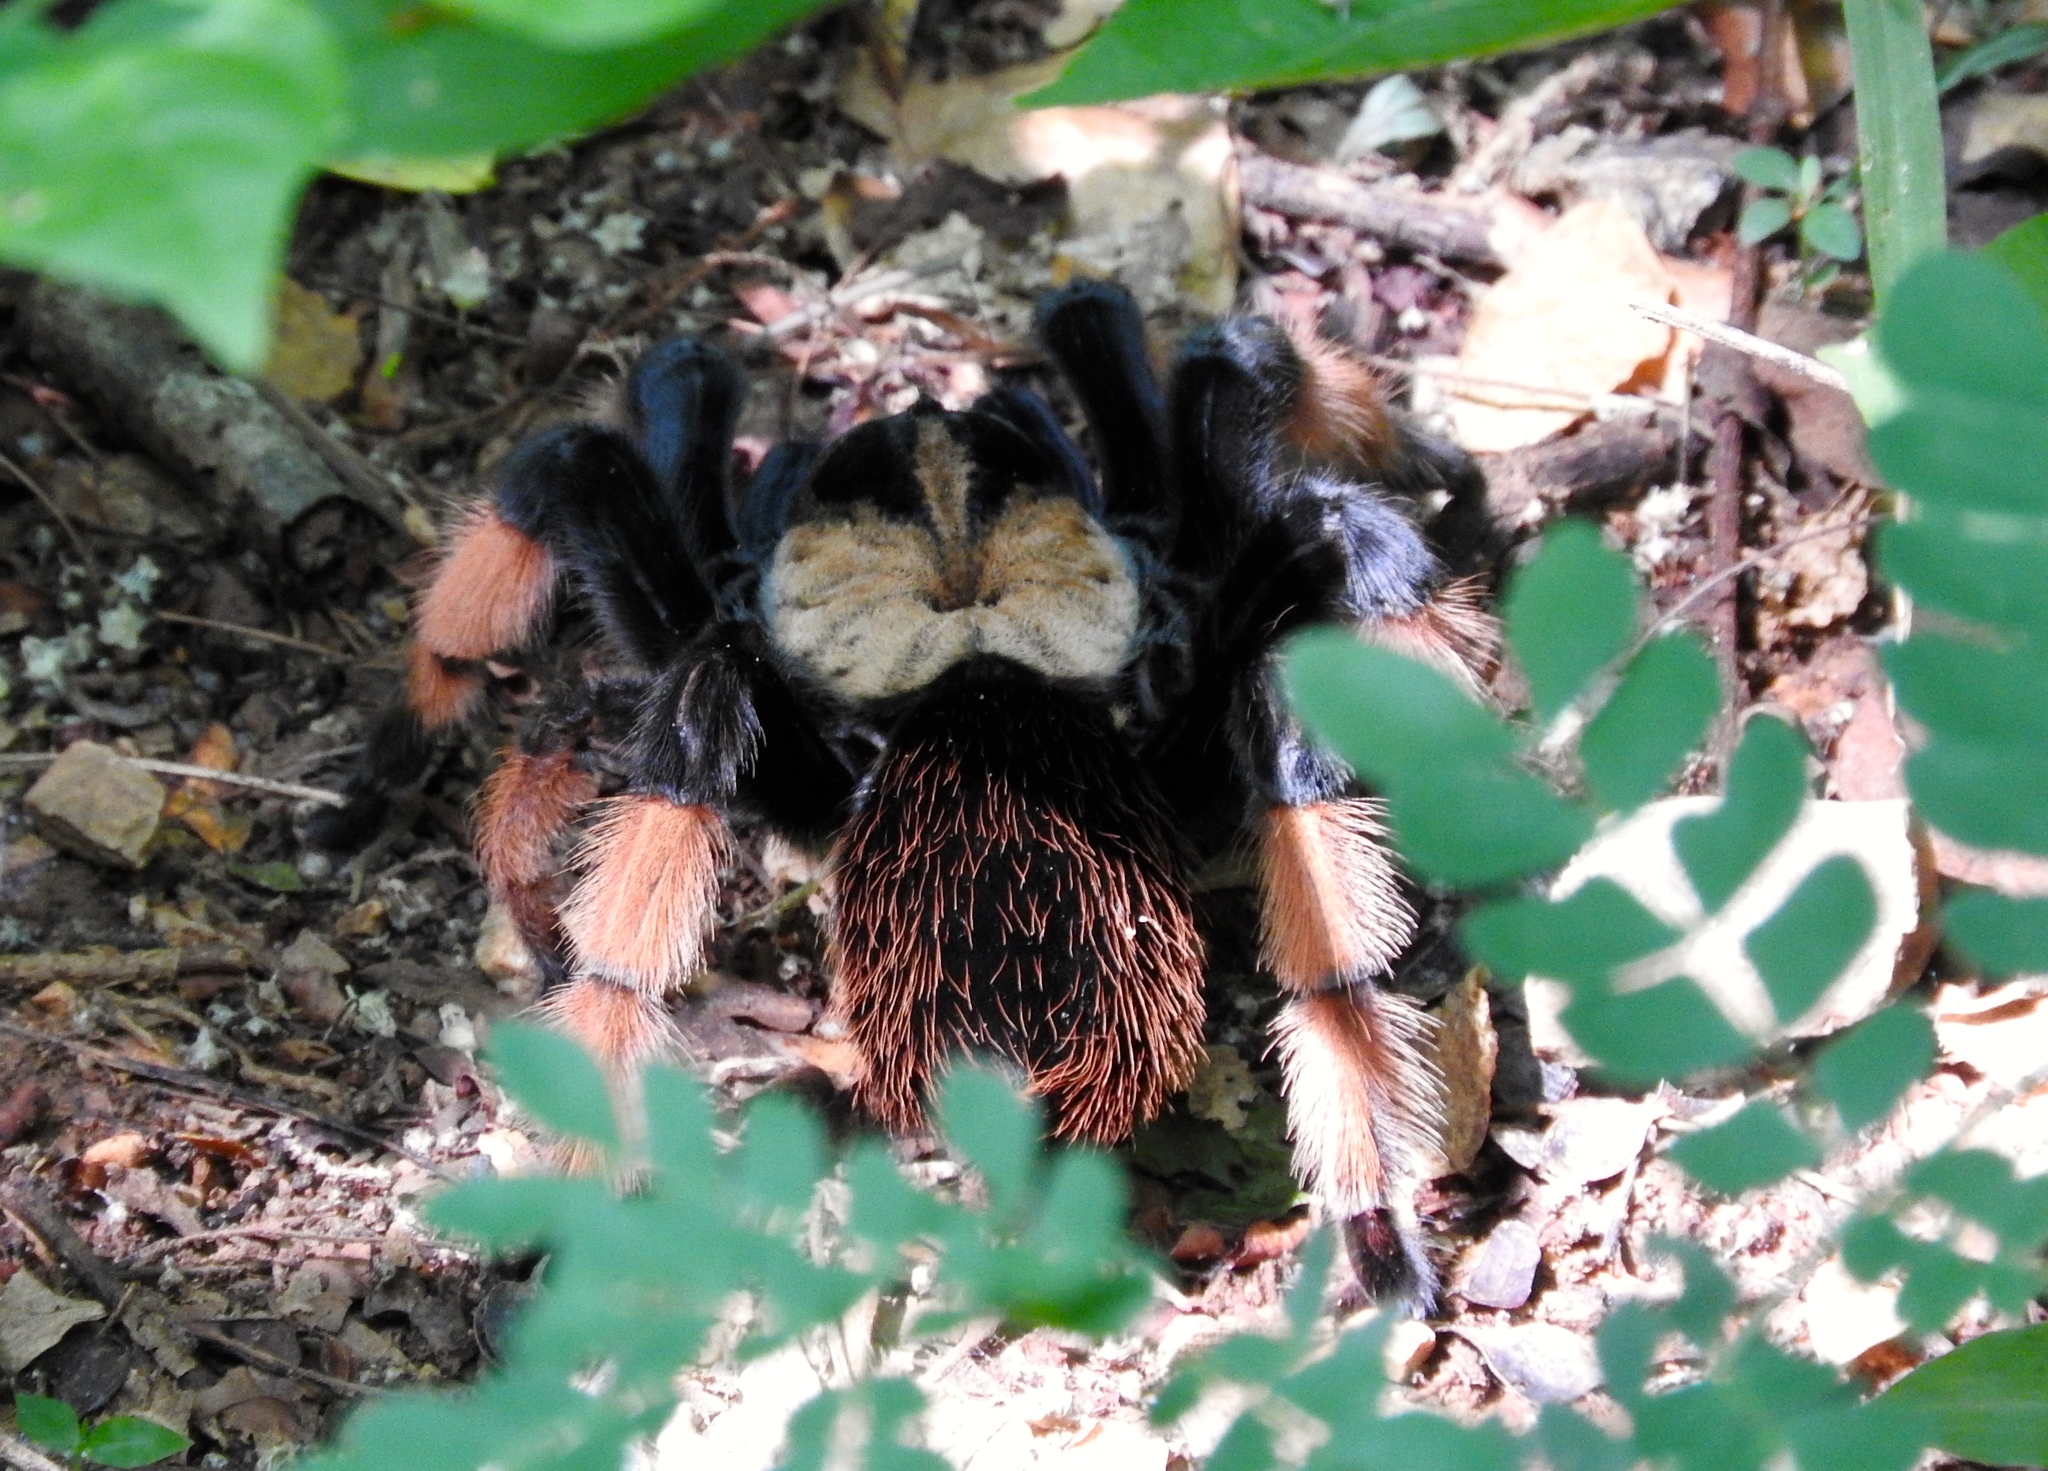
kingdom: Animalia
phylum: Arthropoda
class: Arachnida
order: Araneae
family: Theraphosidae
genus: Brachypelma
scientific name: Brachypelma emilia
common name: Mexican redleg
